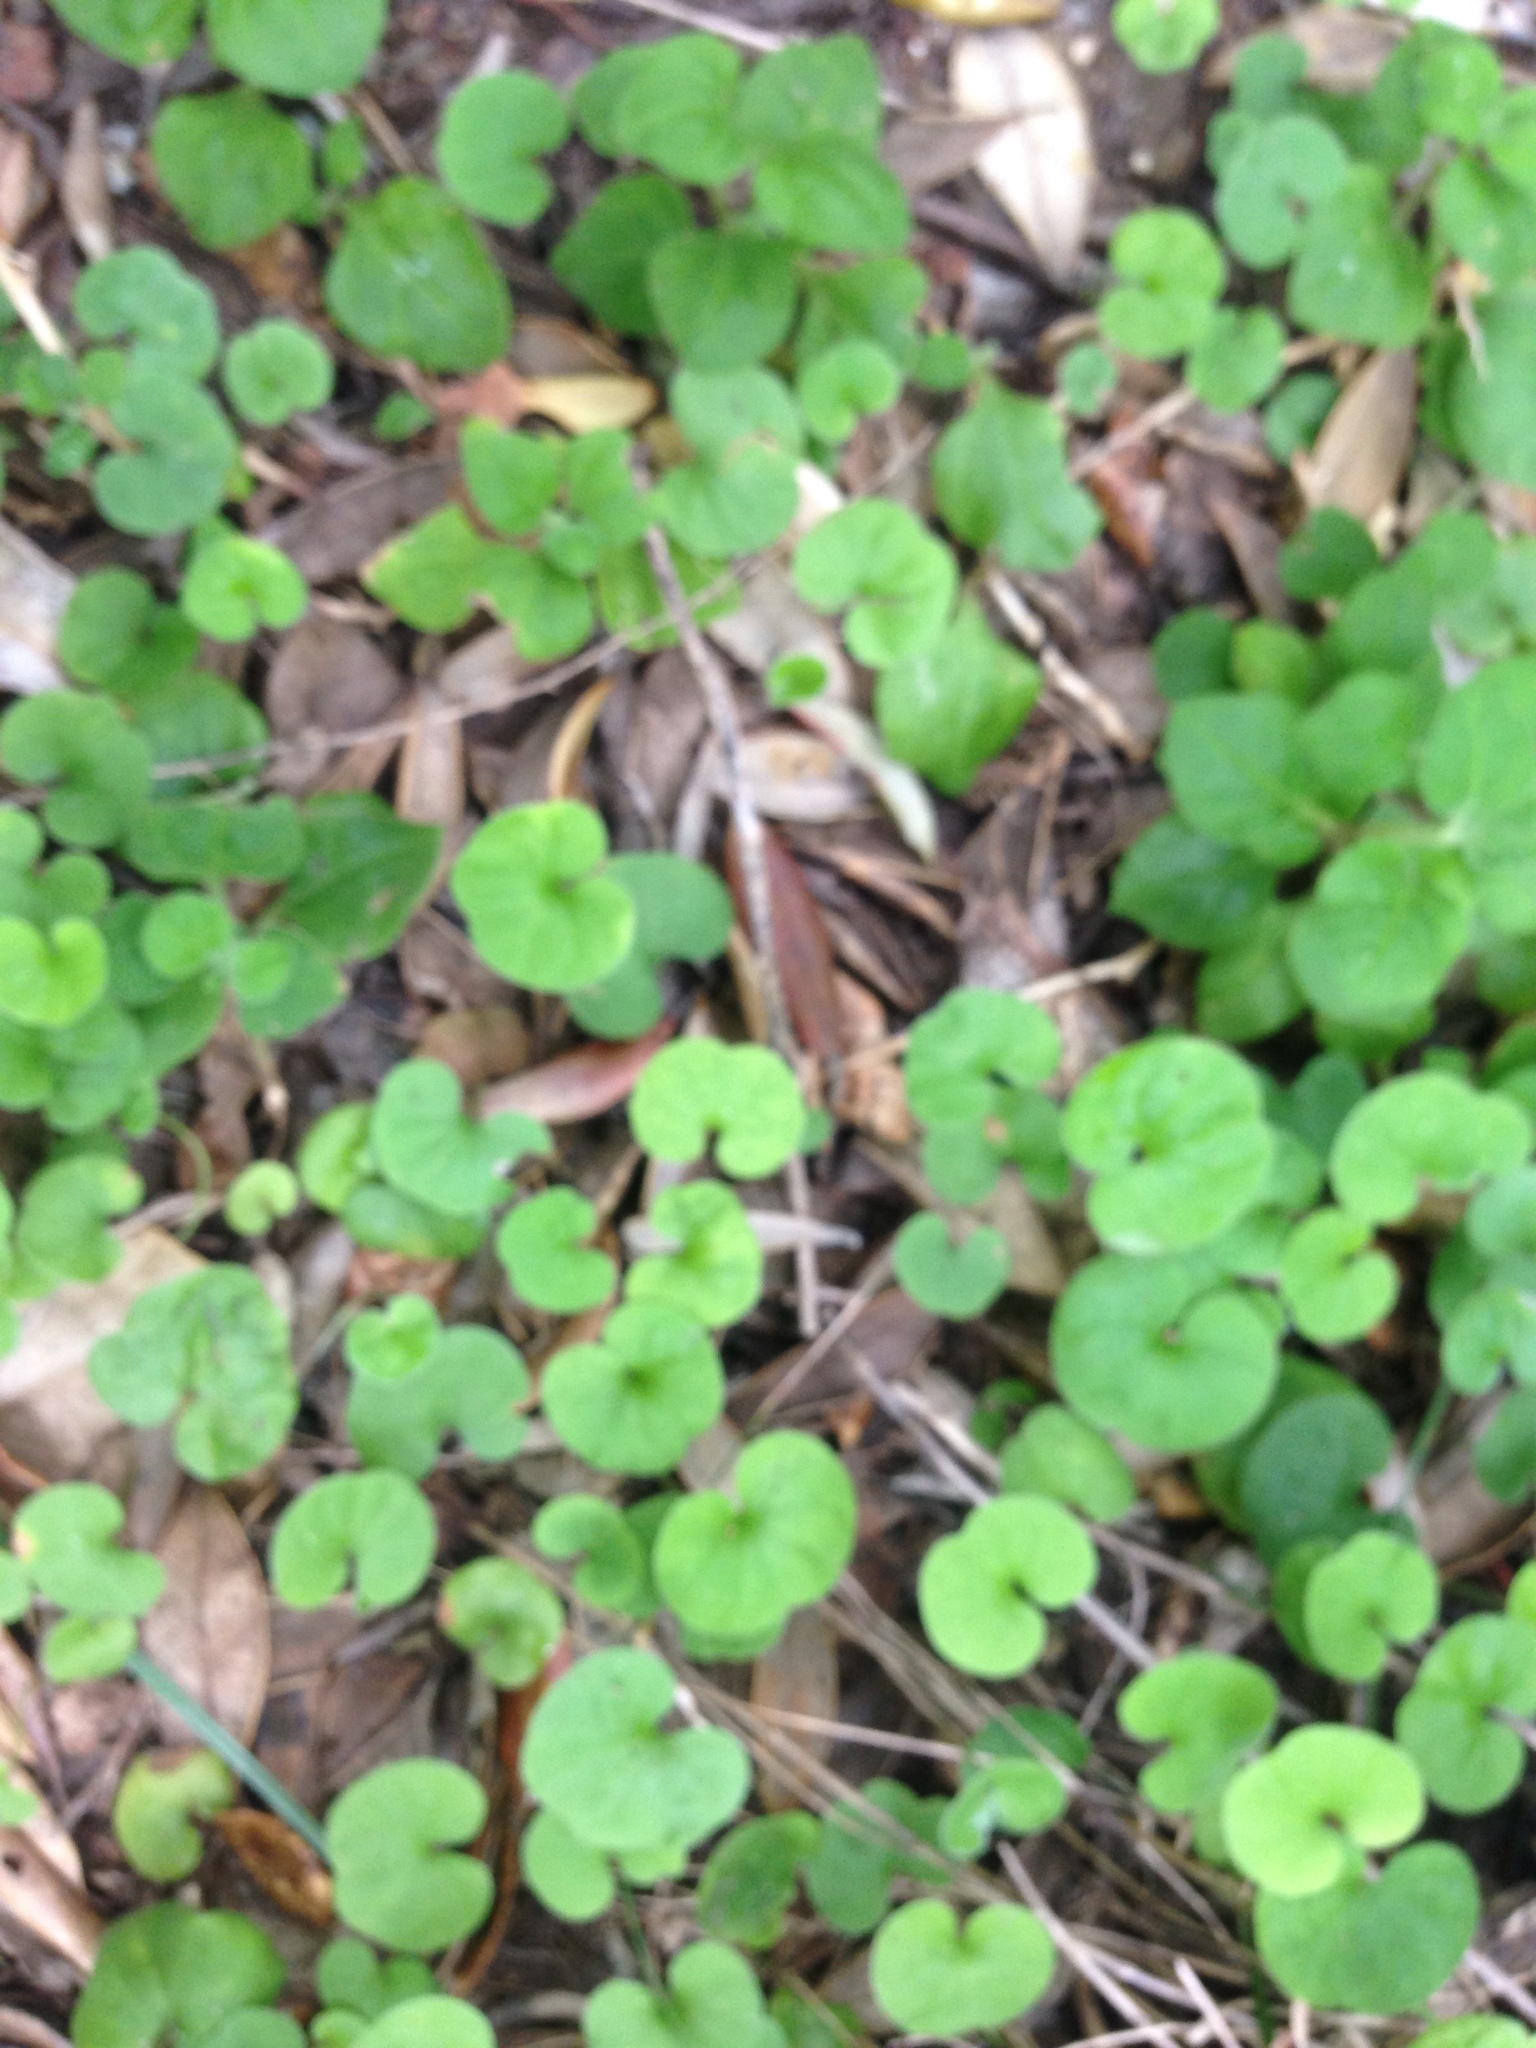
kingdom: Plantae
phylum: Tracheophyta
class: Magnoliopsida
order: Solanales
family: Convolvulaceae
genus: Dichondra
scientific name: Dichondra repens
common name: Kidneyweed
